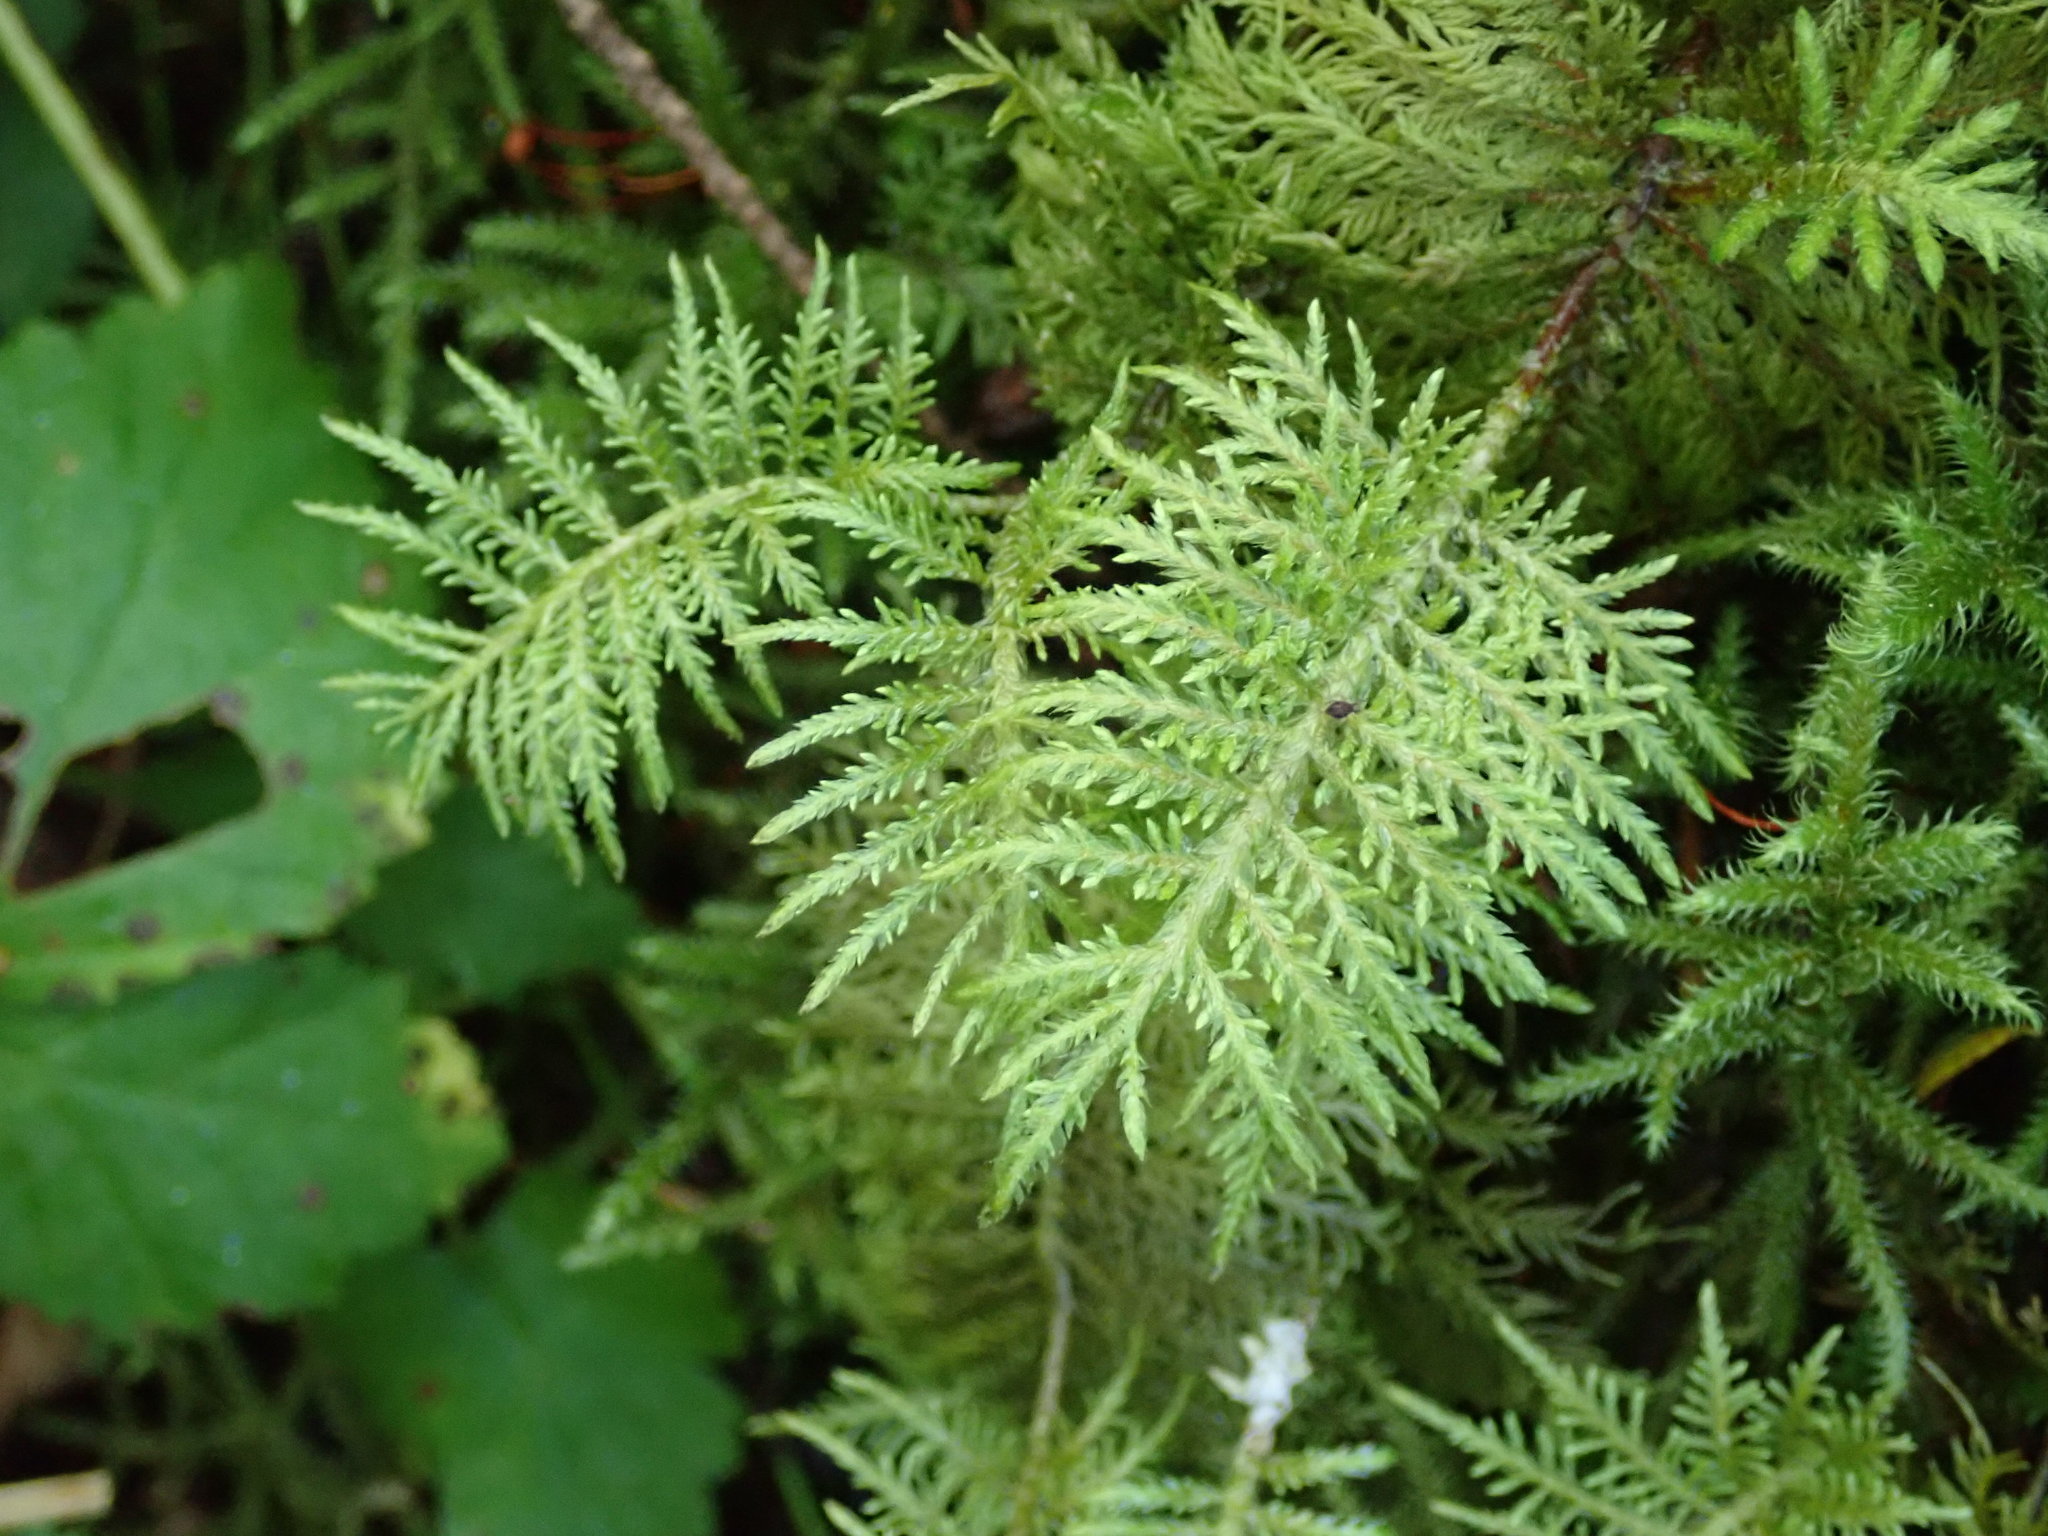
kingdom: Plantae
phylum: Bryophyta
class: Bryopsida
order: Hypnales
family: Hylocomiaceae
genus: Hylocomium
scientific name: Hylocomium splendens
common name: Stairstep moss
